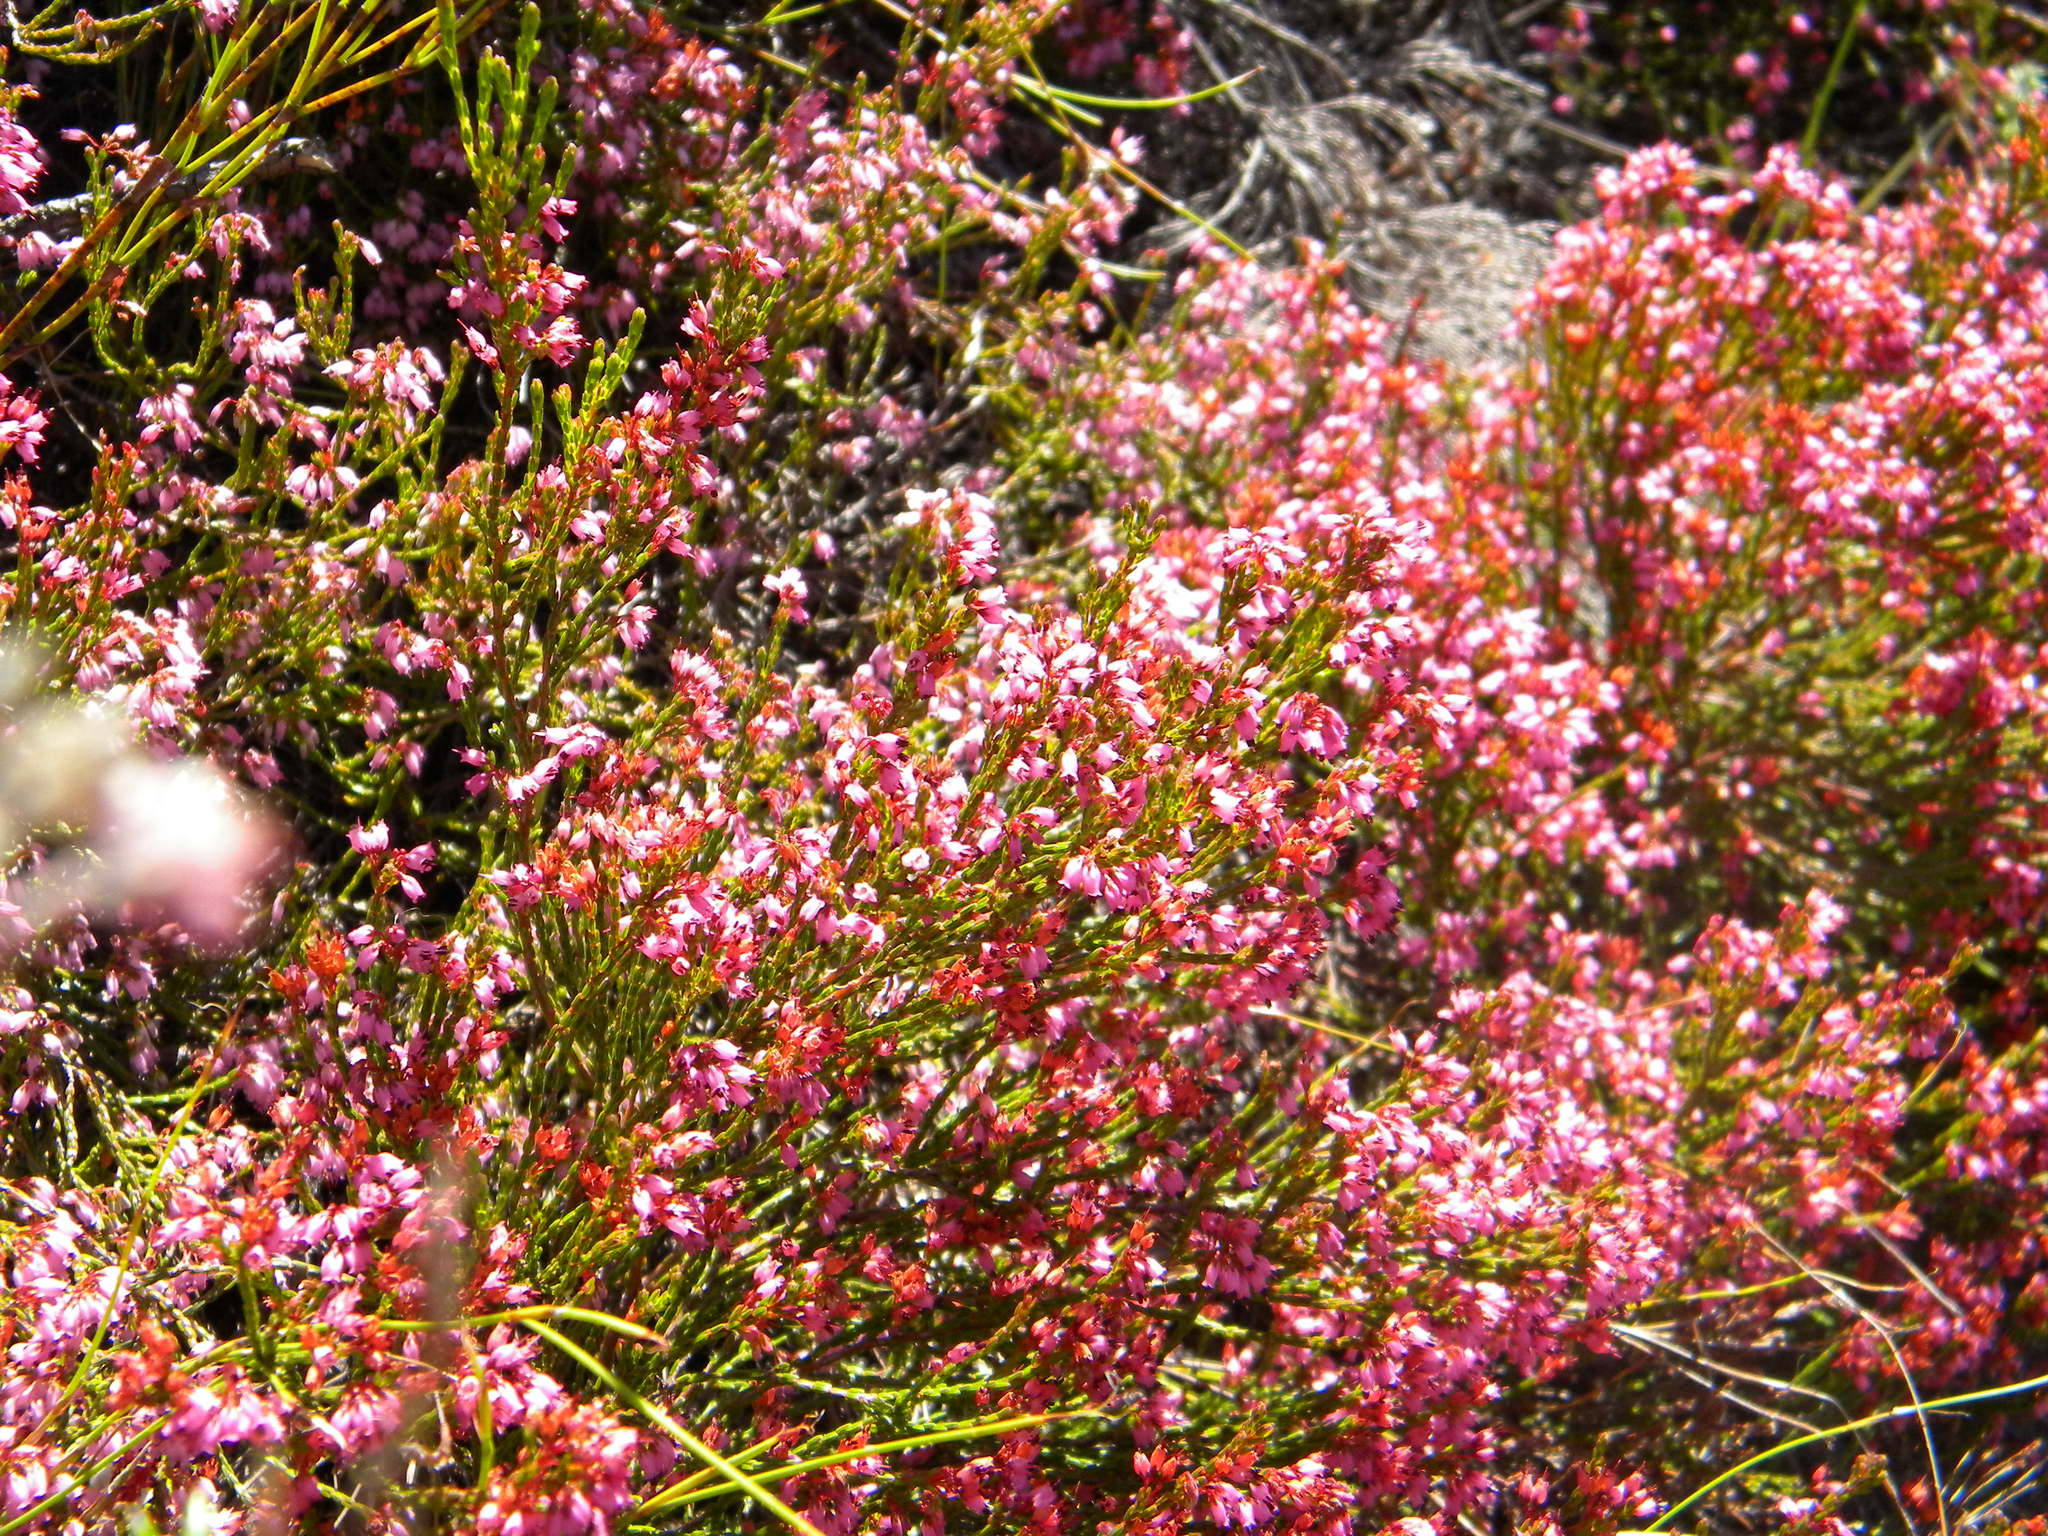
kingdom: Plantae
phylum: Tracheophyta
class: Magnoliopsida
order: Ericales
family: Ericaceae
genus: Erica
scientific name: Erica equisetifolia
